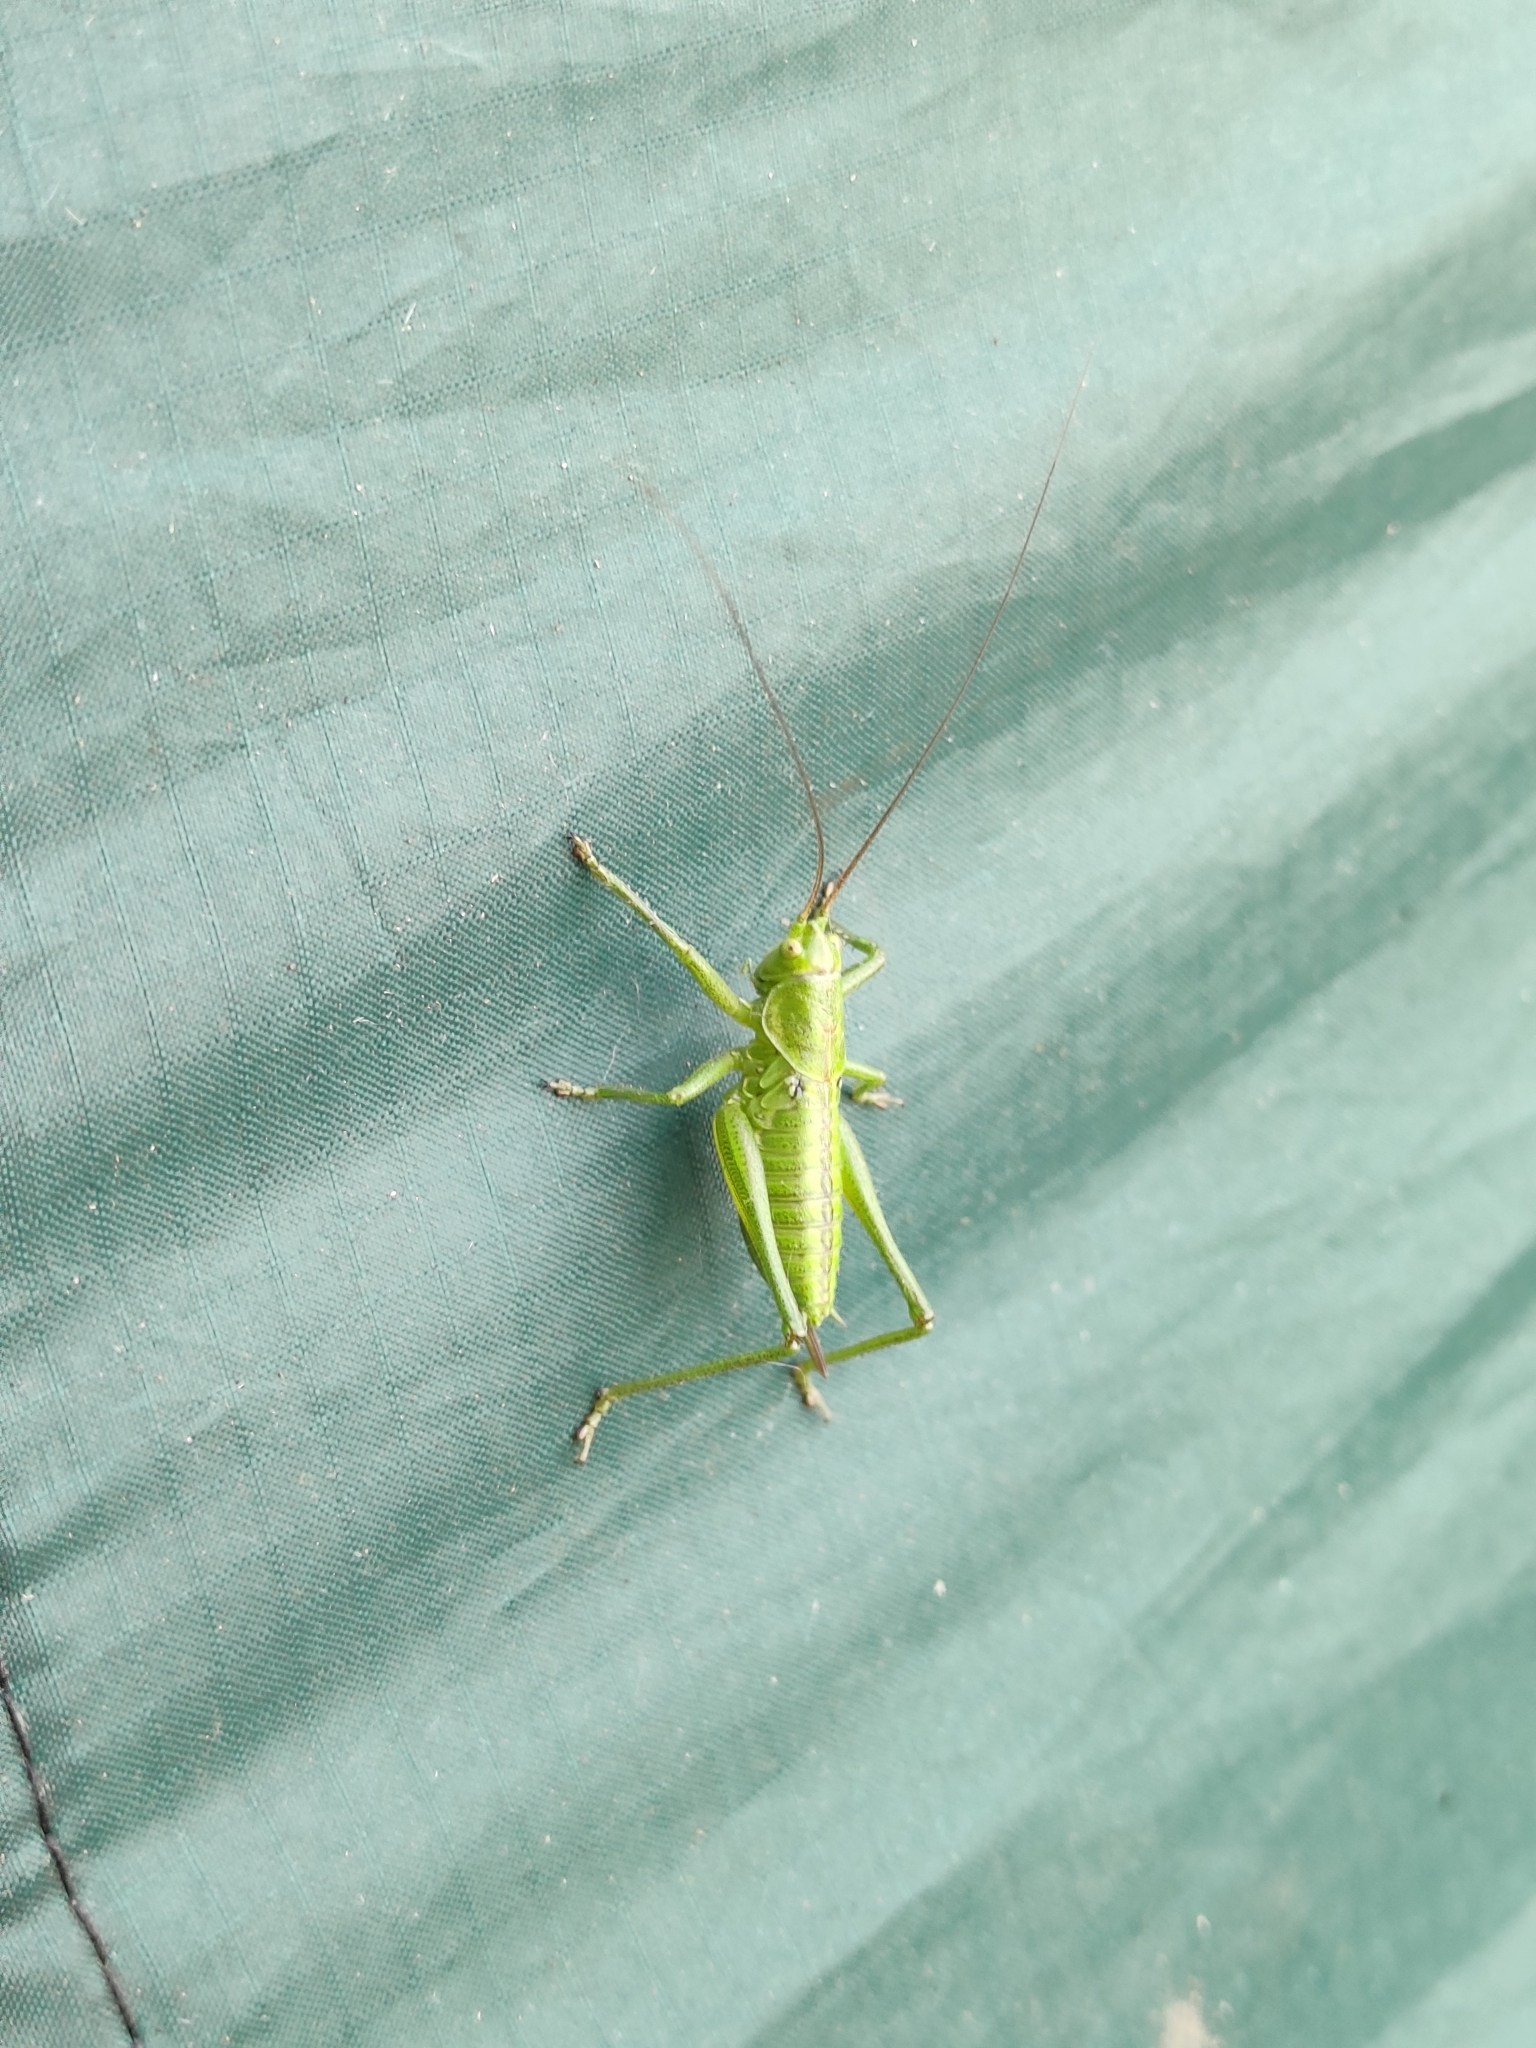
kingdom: Animalia
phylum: Arthropoda
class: Insecta
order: Orthoptera
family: Tettigoniidae
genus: Tettigonia
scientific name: Tettigonia viridissima
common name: Great green bush-cricket
